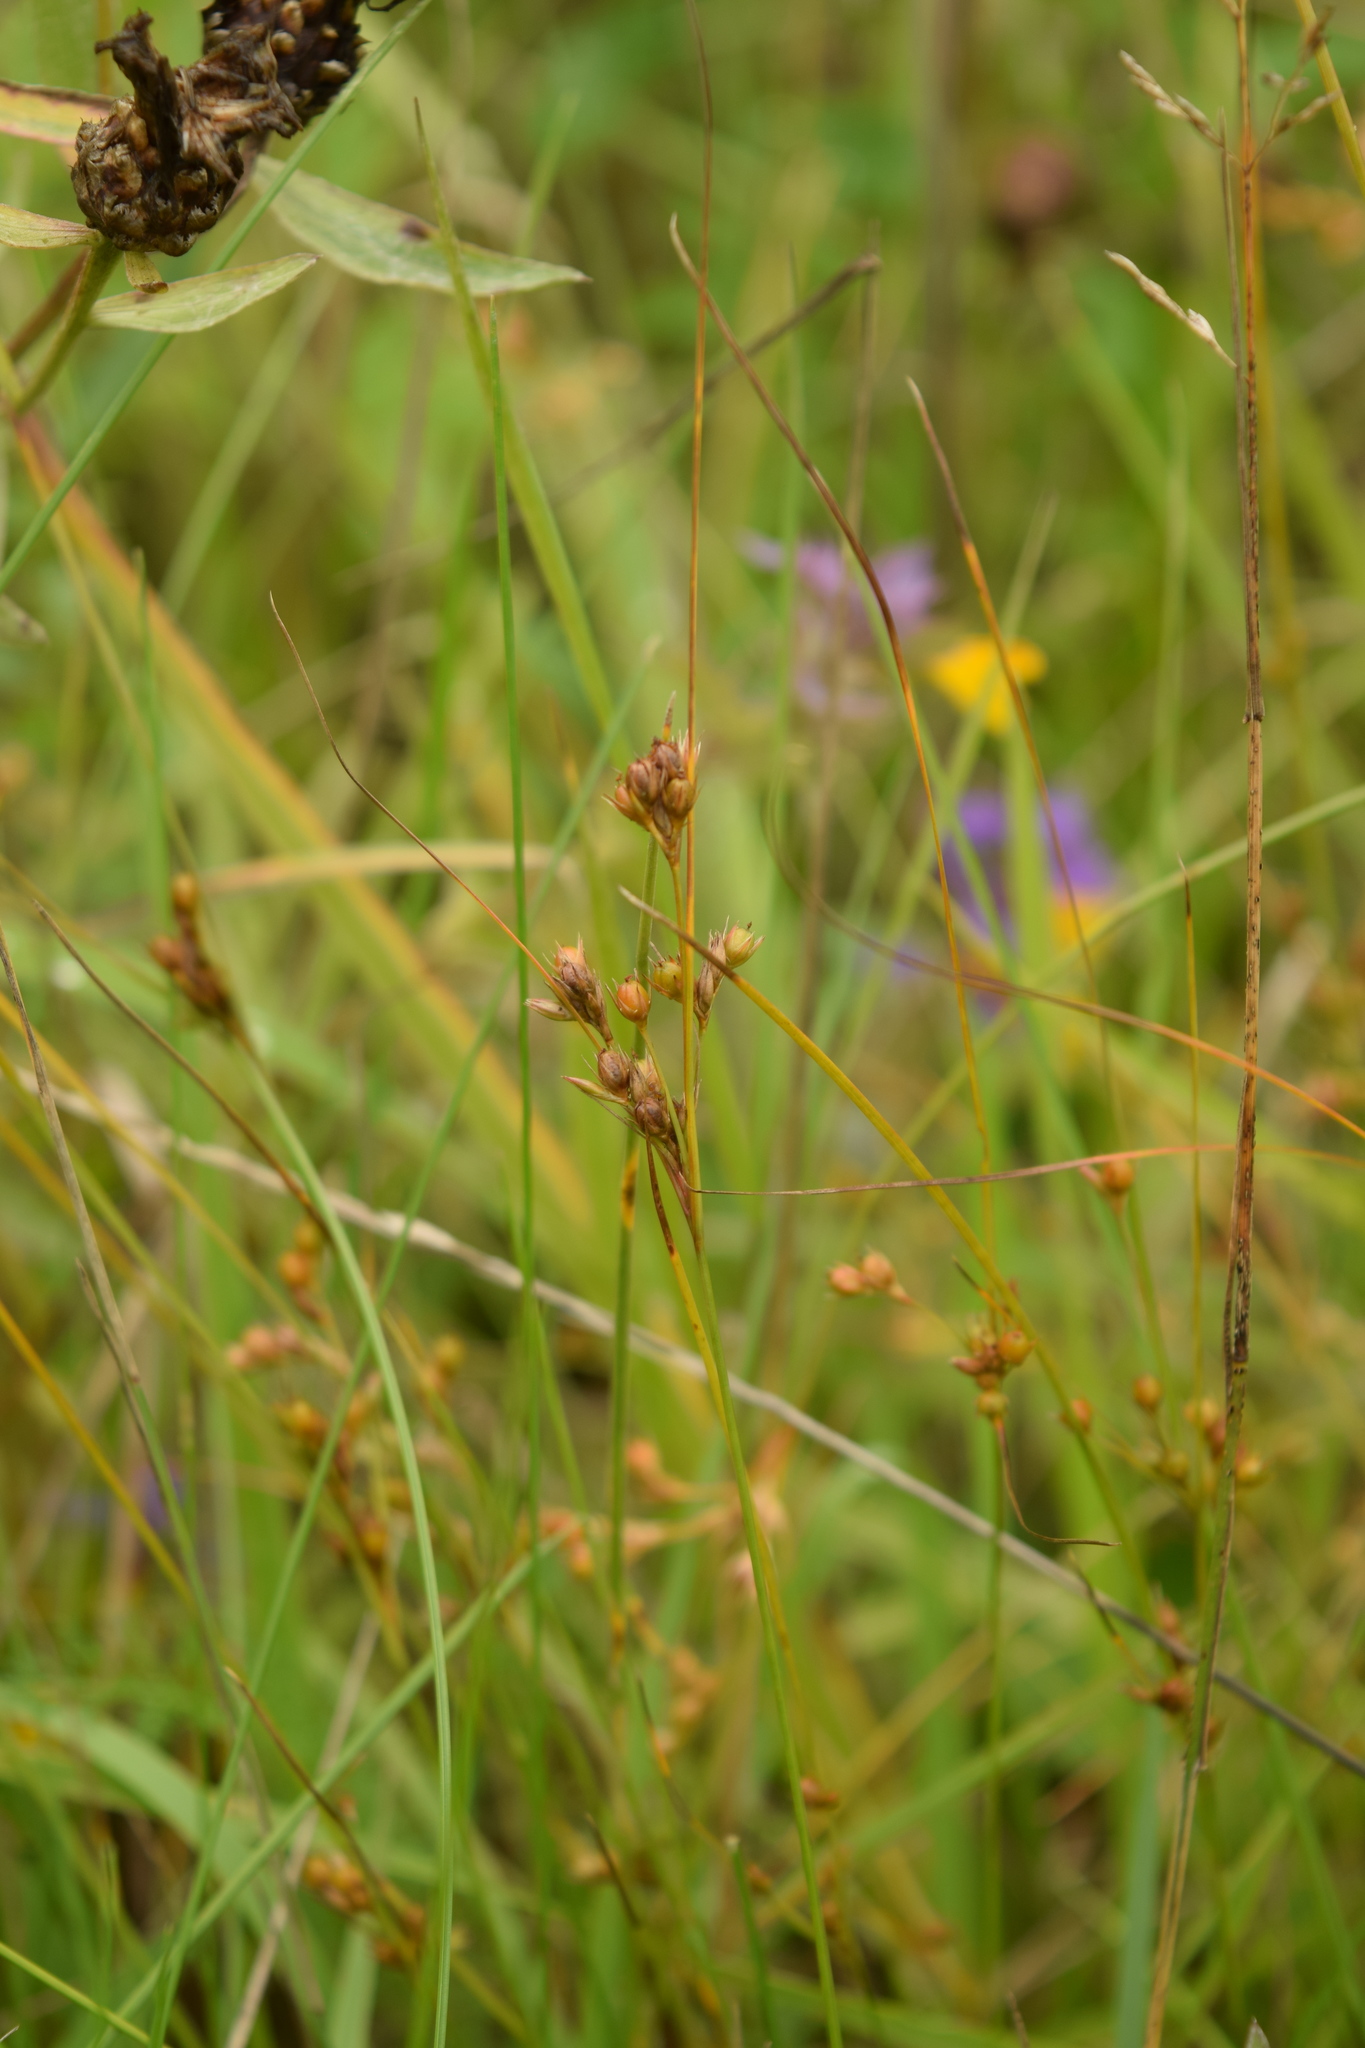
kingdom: Plantae
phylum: Tracheophyta
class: Liliopsida
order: Poales
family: Juncaceae
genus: Juncus
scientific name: Juncus tenuis
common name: Slender rush
